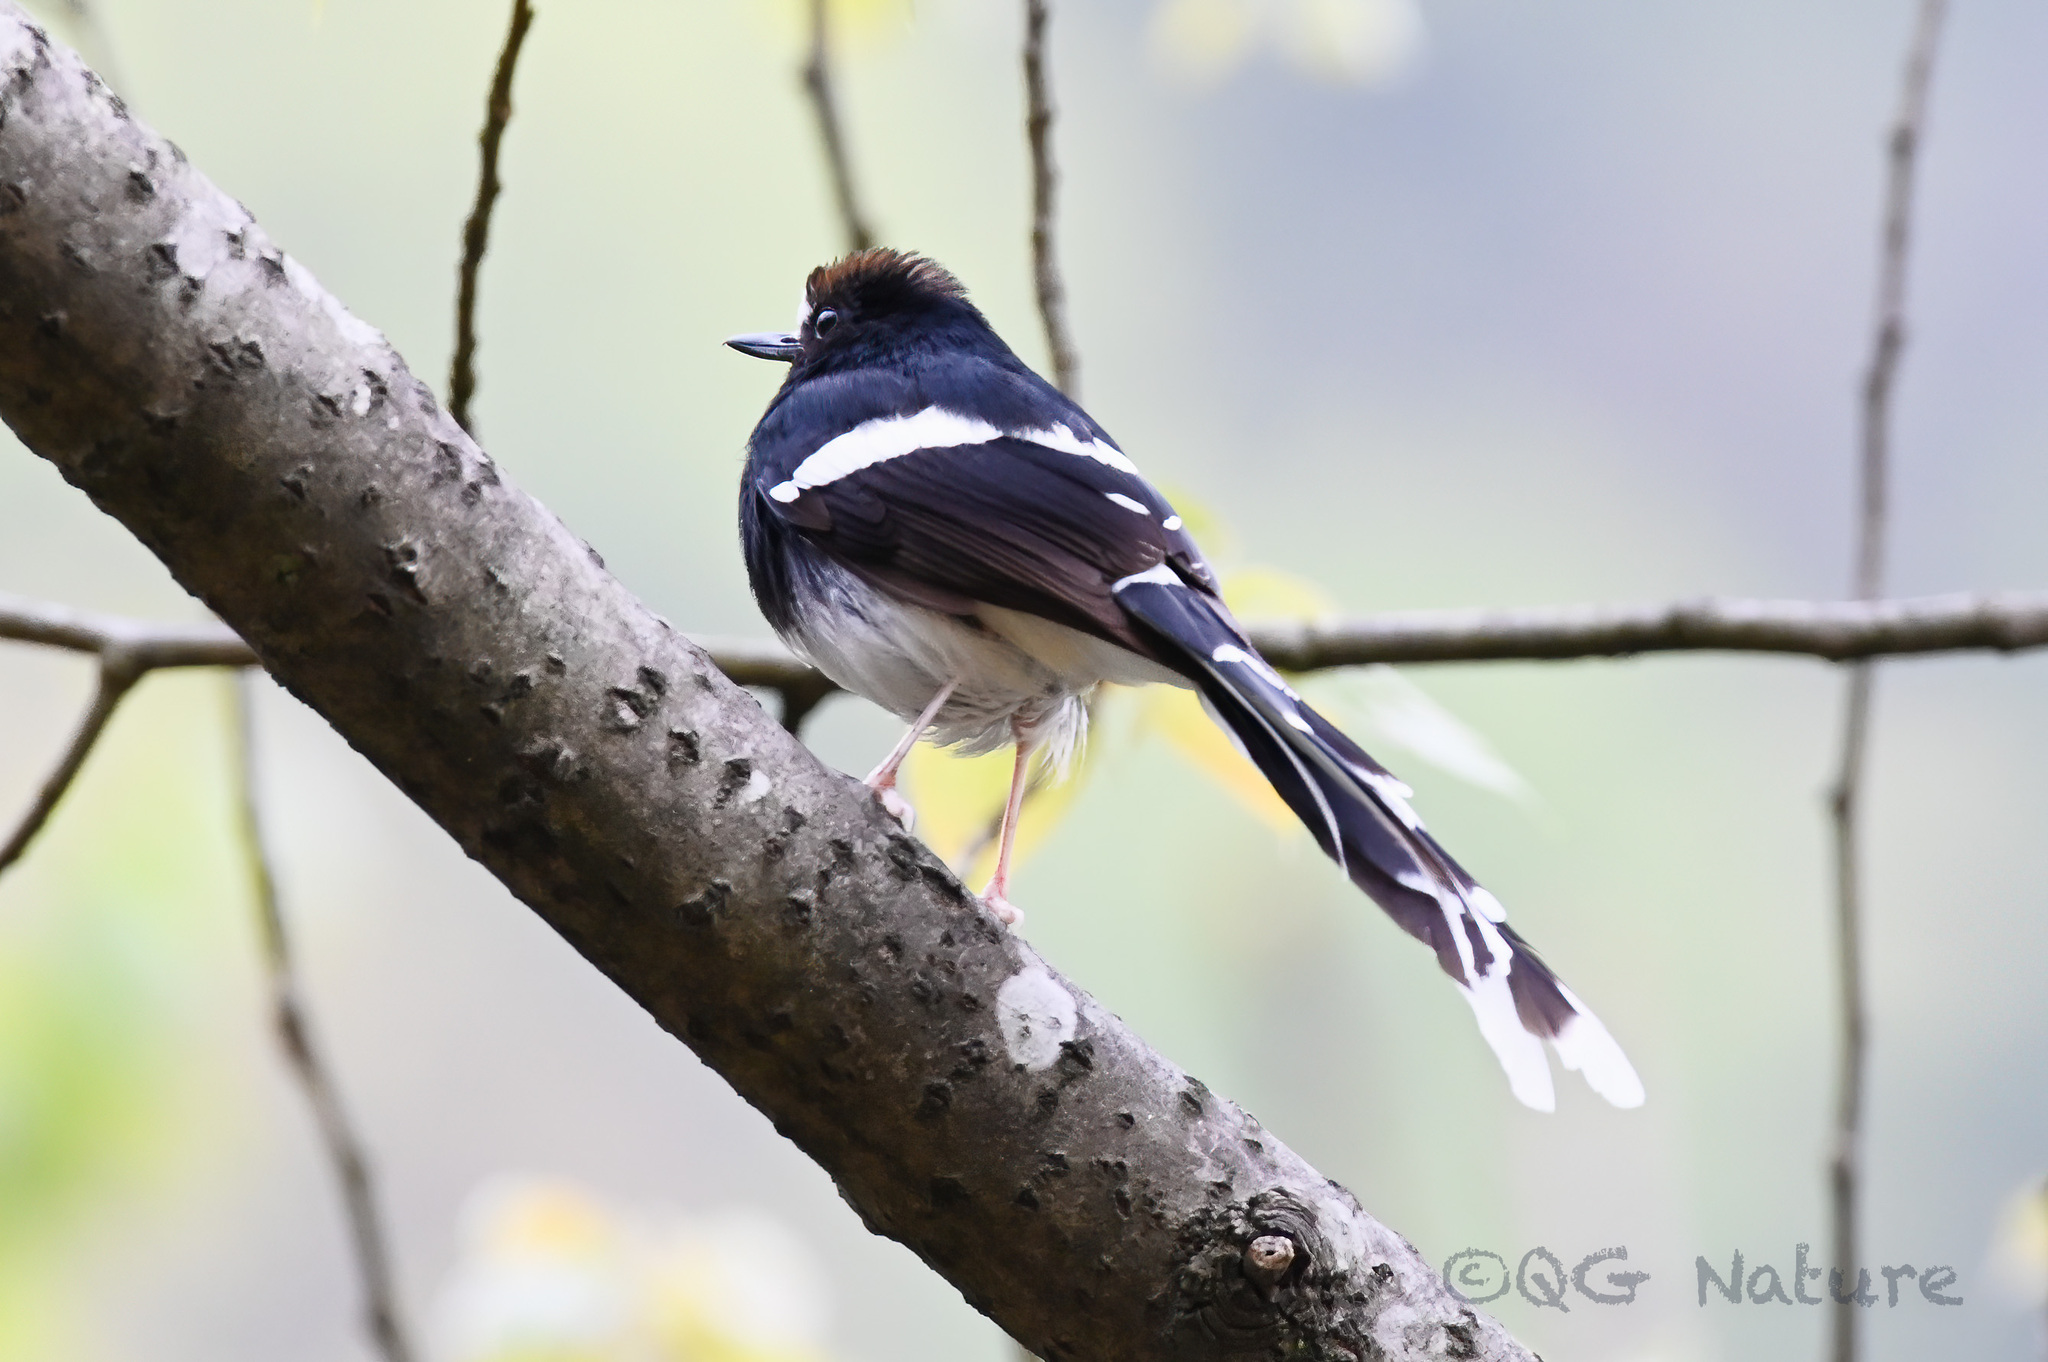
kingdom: Animalia
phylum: Chordata
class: Aves
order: Passeriformes
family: Muscicapidae
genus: Enicurus
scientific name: Enicurus leschenaulti
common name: White-crowned forktail
